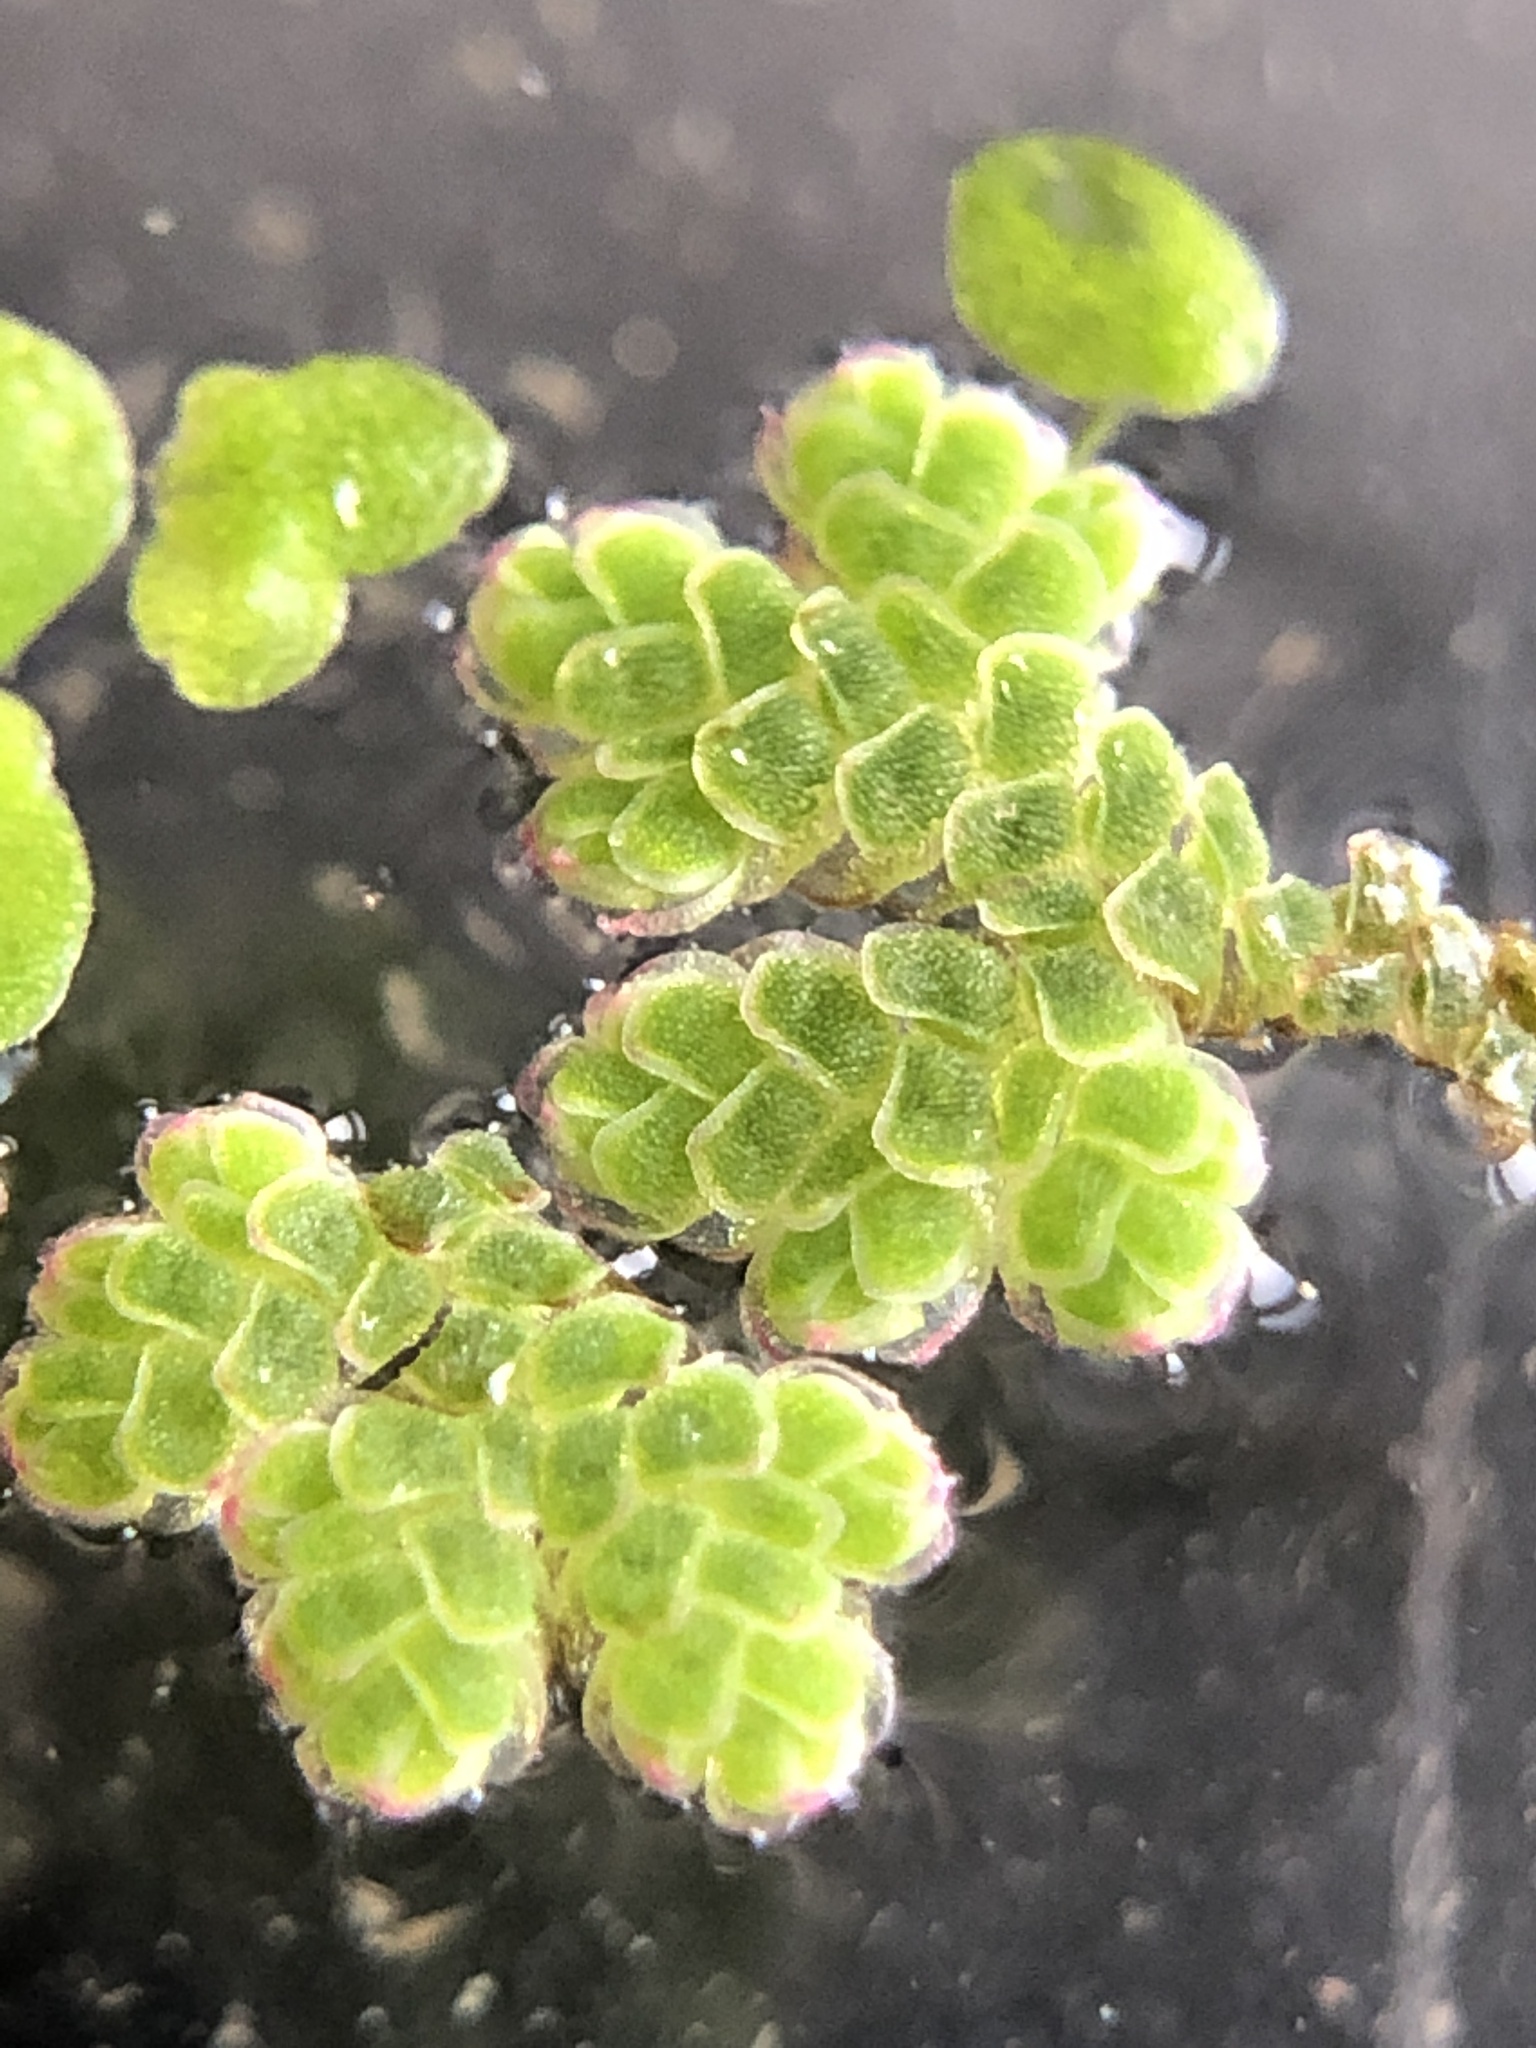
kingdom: Plantae
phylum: Tracheophyta
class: Polypodiopsida
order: Salviniales
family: Salviniaceae
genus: Azolla
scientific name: Azolla filiculoides
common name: Water fern
